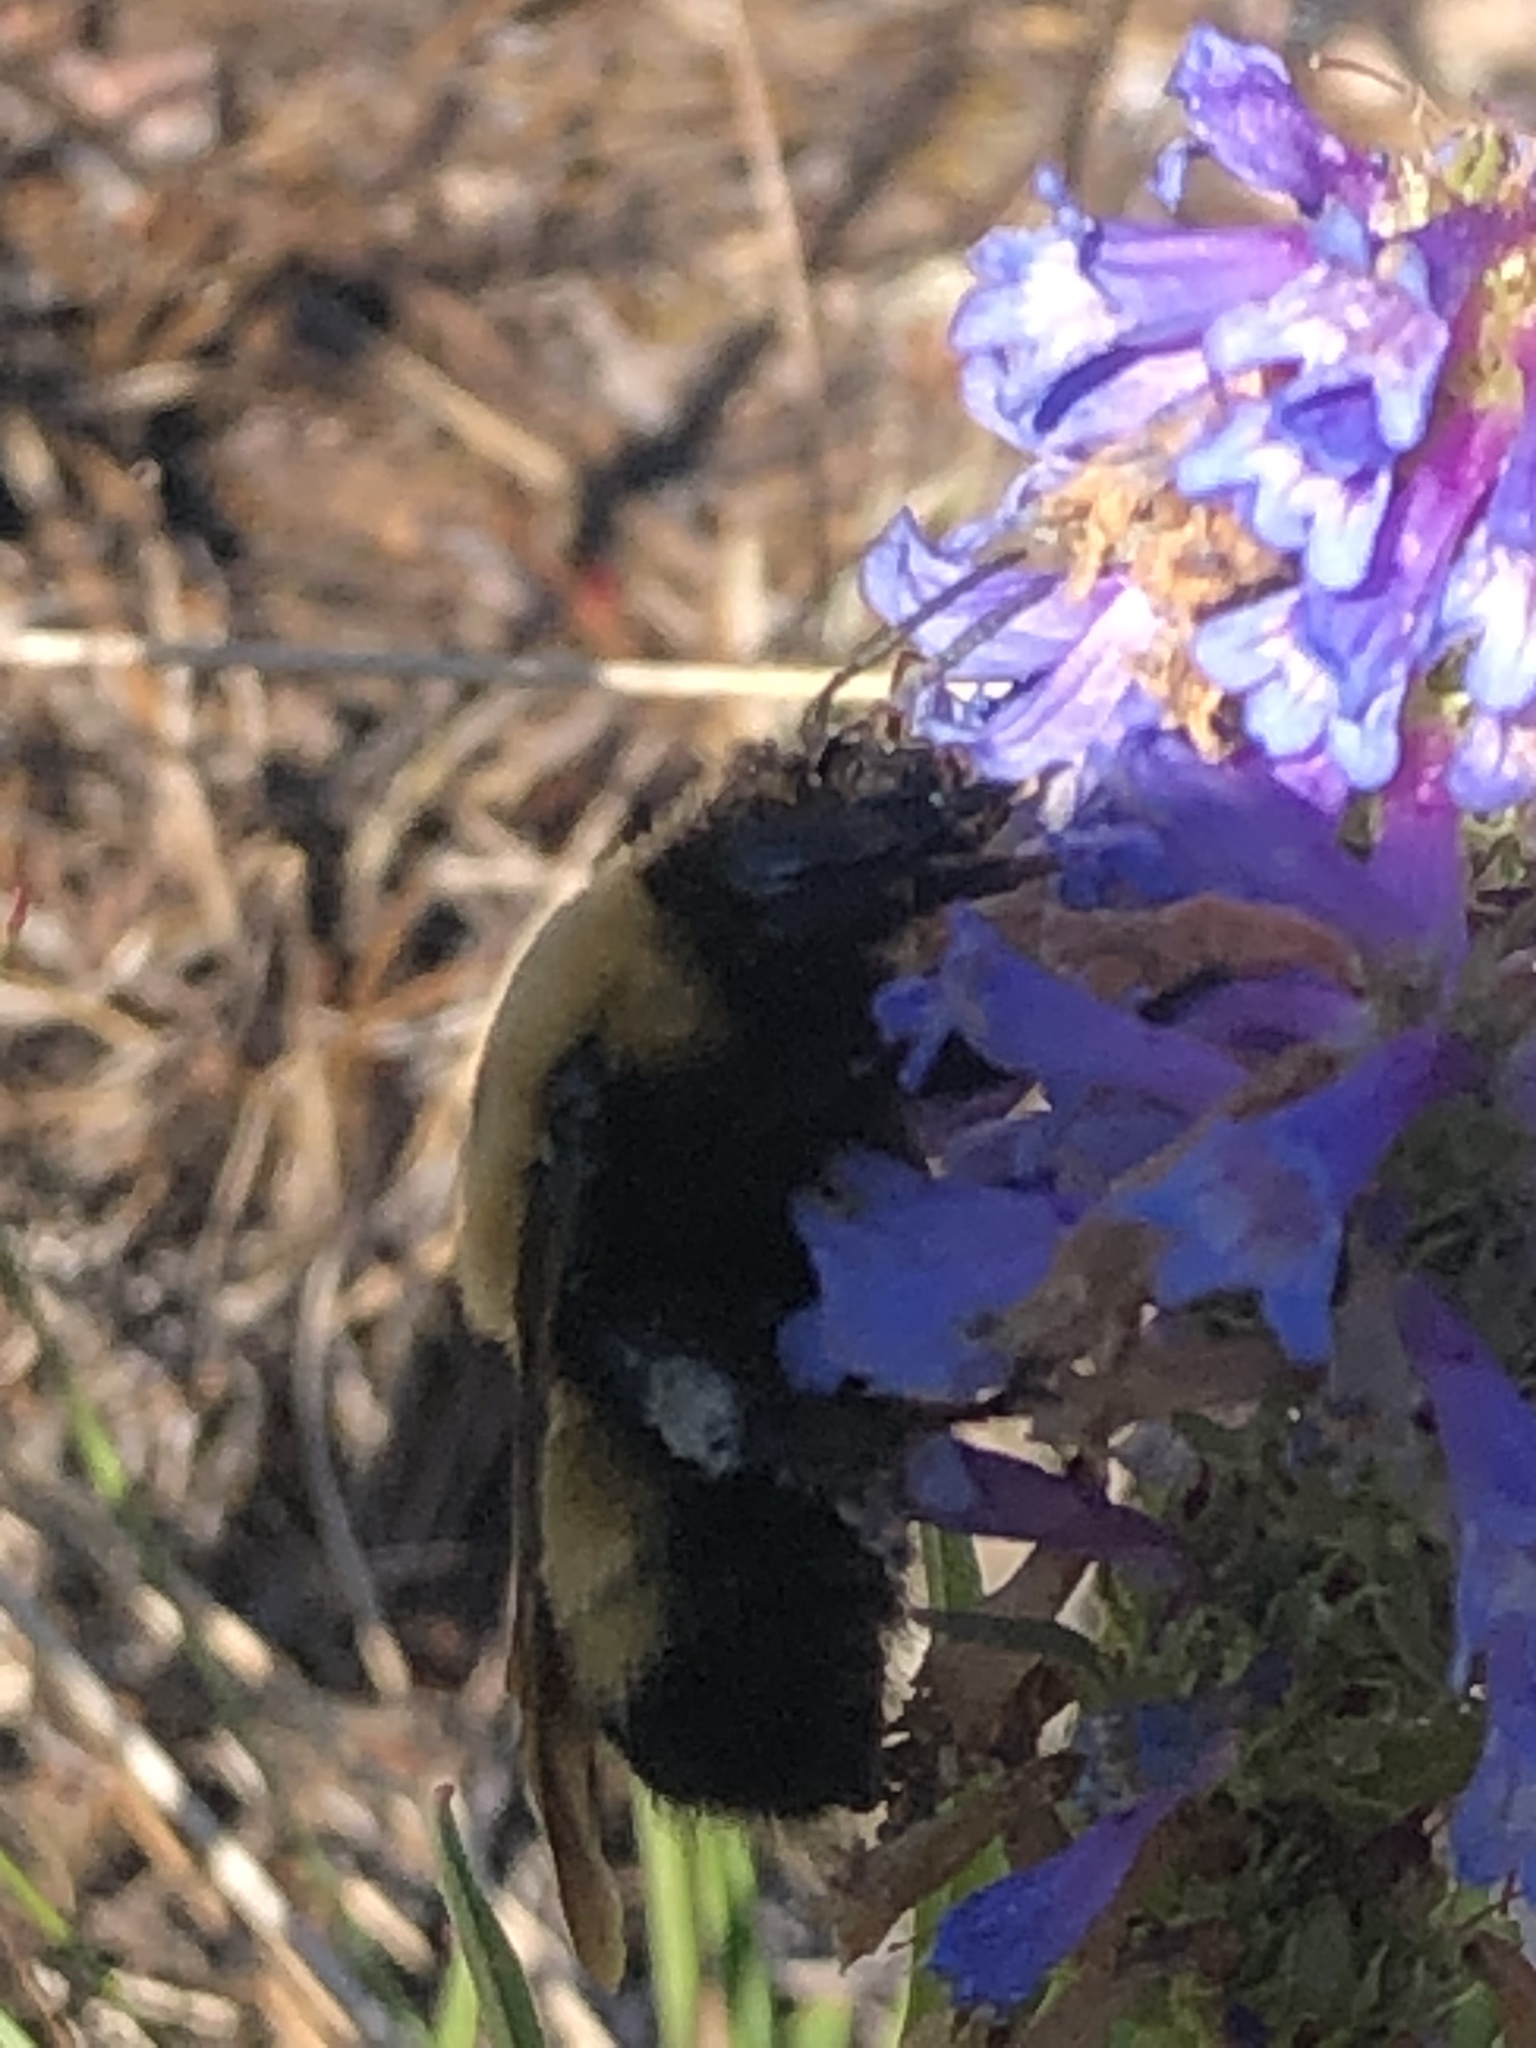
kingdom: Animalia
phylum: Arthropoda
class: Insecta
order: Hymenoptera
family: Apidae
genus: Bombus
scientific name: Bombus nevadensis
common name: Nevada bumble bee
